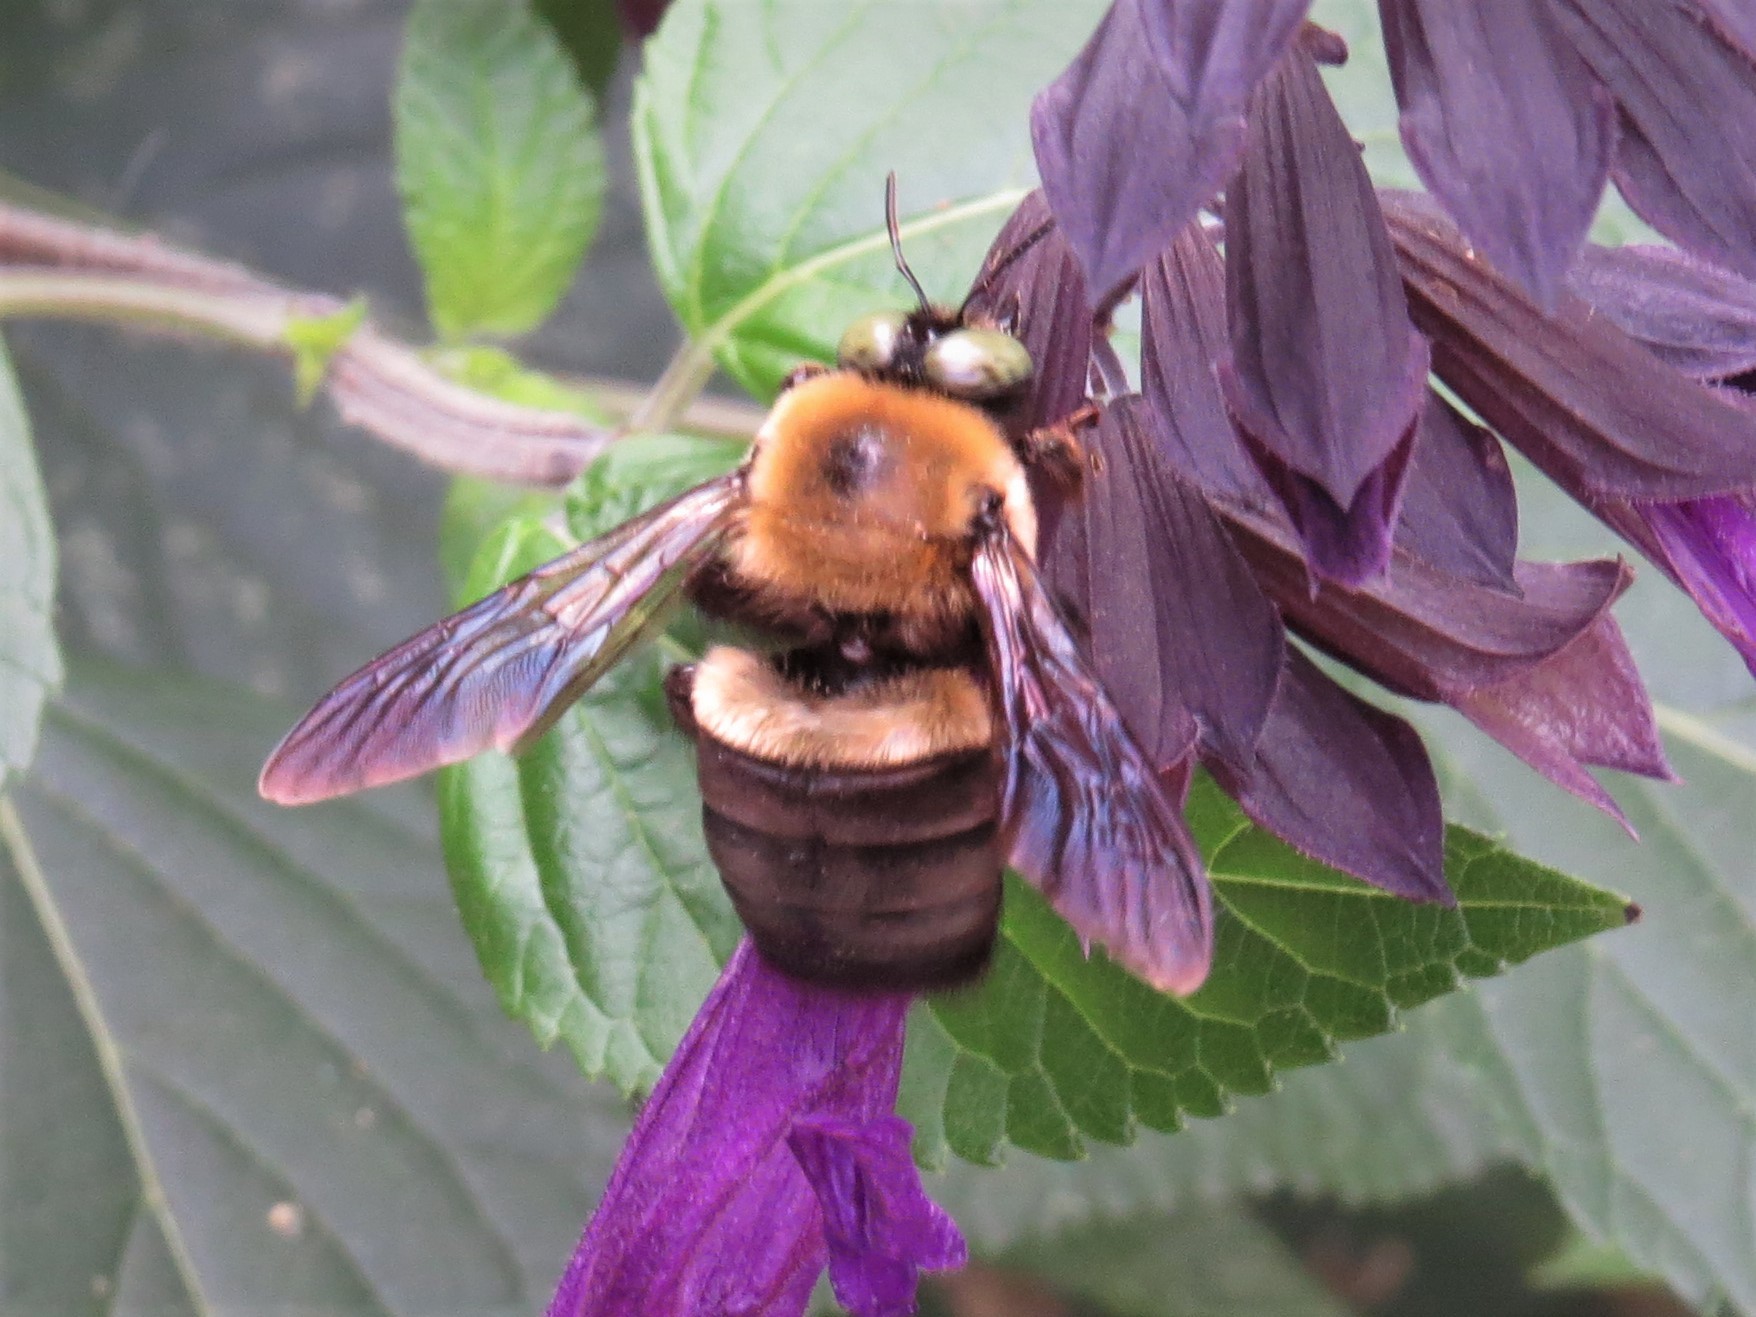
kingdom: Animalia
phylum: Arthropoda
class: Insecta
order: Hymenoptera
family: Apidae
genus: Xylocopa
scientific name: Xylocopa virginica
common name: Carpenter bee
